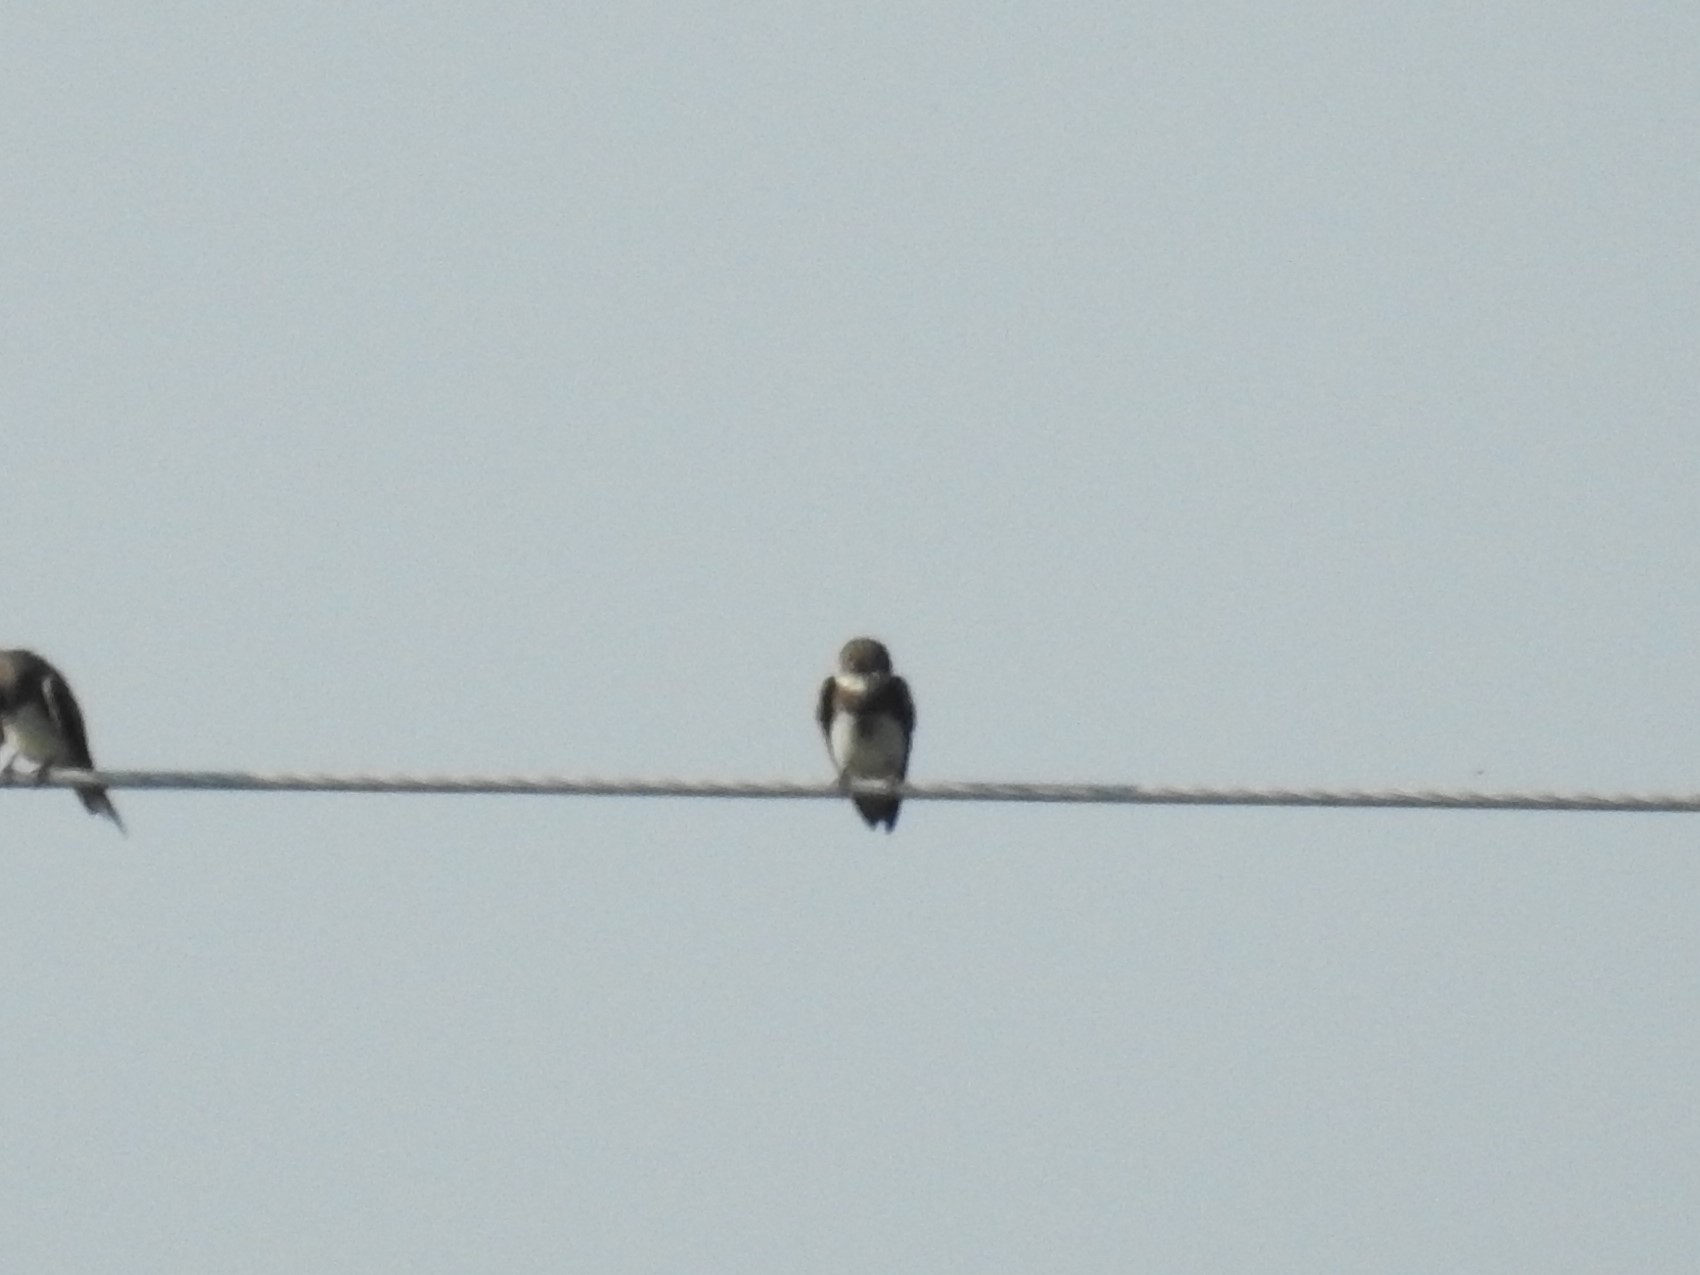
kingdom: Animalia
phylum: Chordata
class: Aves
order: Passeriformes
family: Hirundinidae
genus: Riparia
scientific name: Riparia riparia
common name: Sand martin
